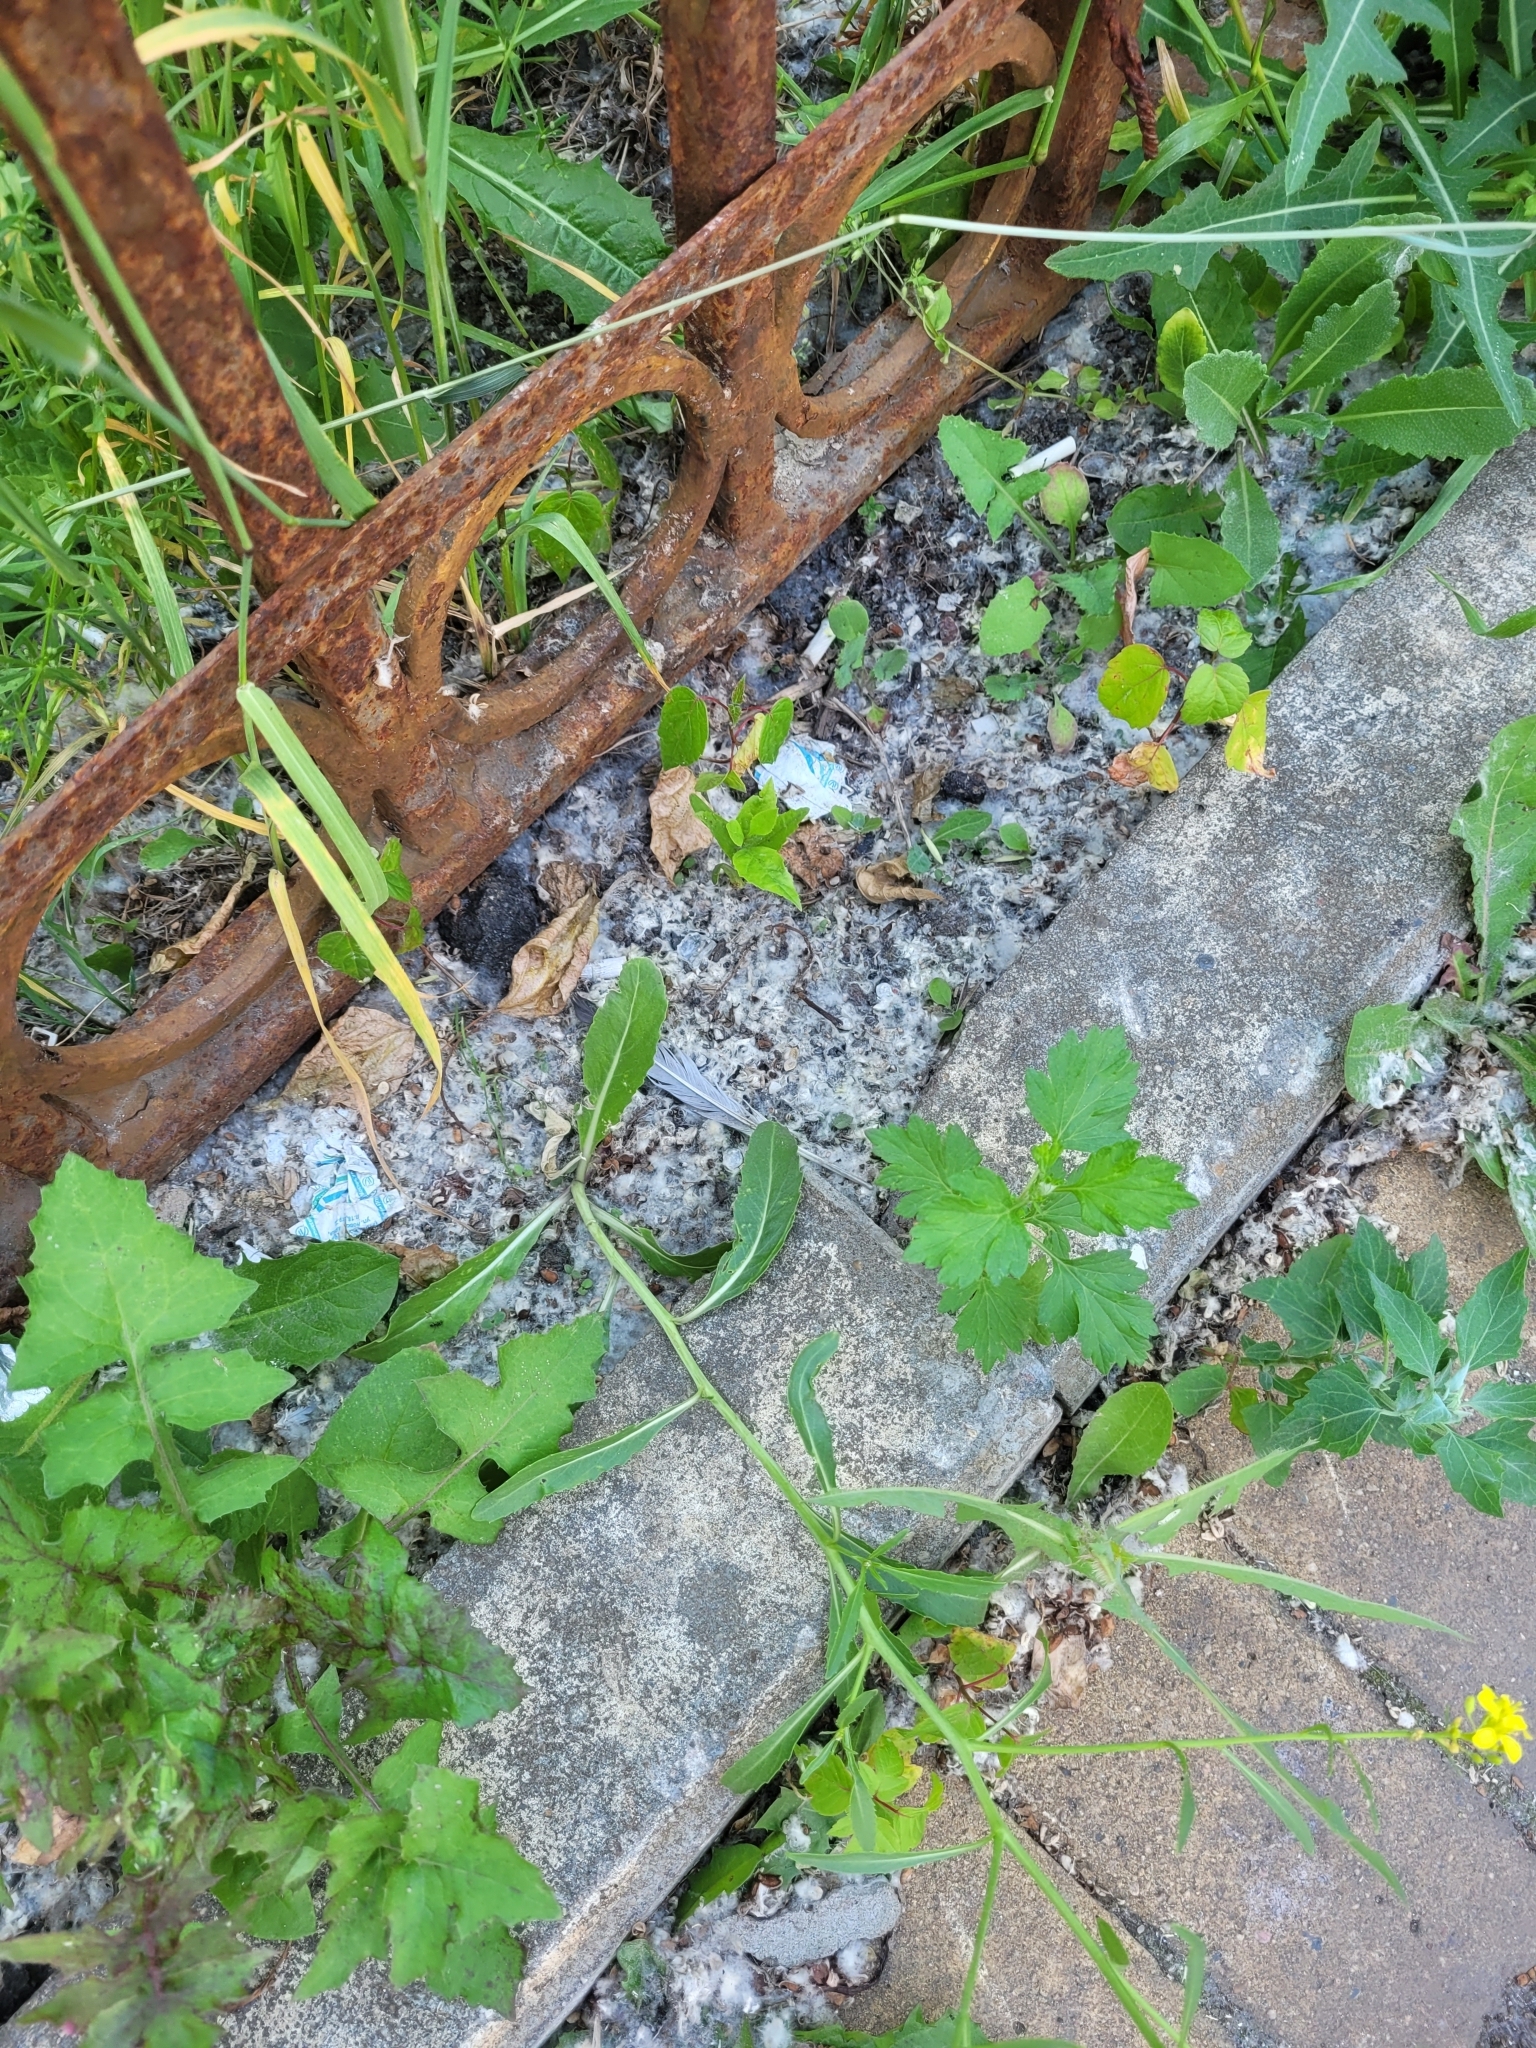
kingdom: Plantae
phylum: Tracheophyta
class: Magnoliopsida
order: Brassicales
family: Brassicaceae
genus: Brassica
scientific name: Brassica elongata
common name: Long-stalked rape
